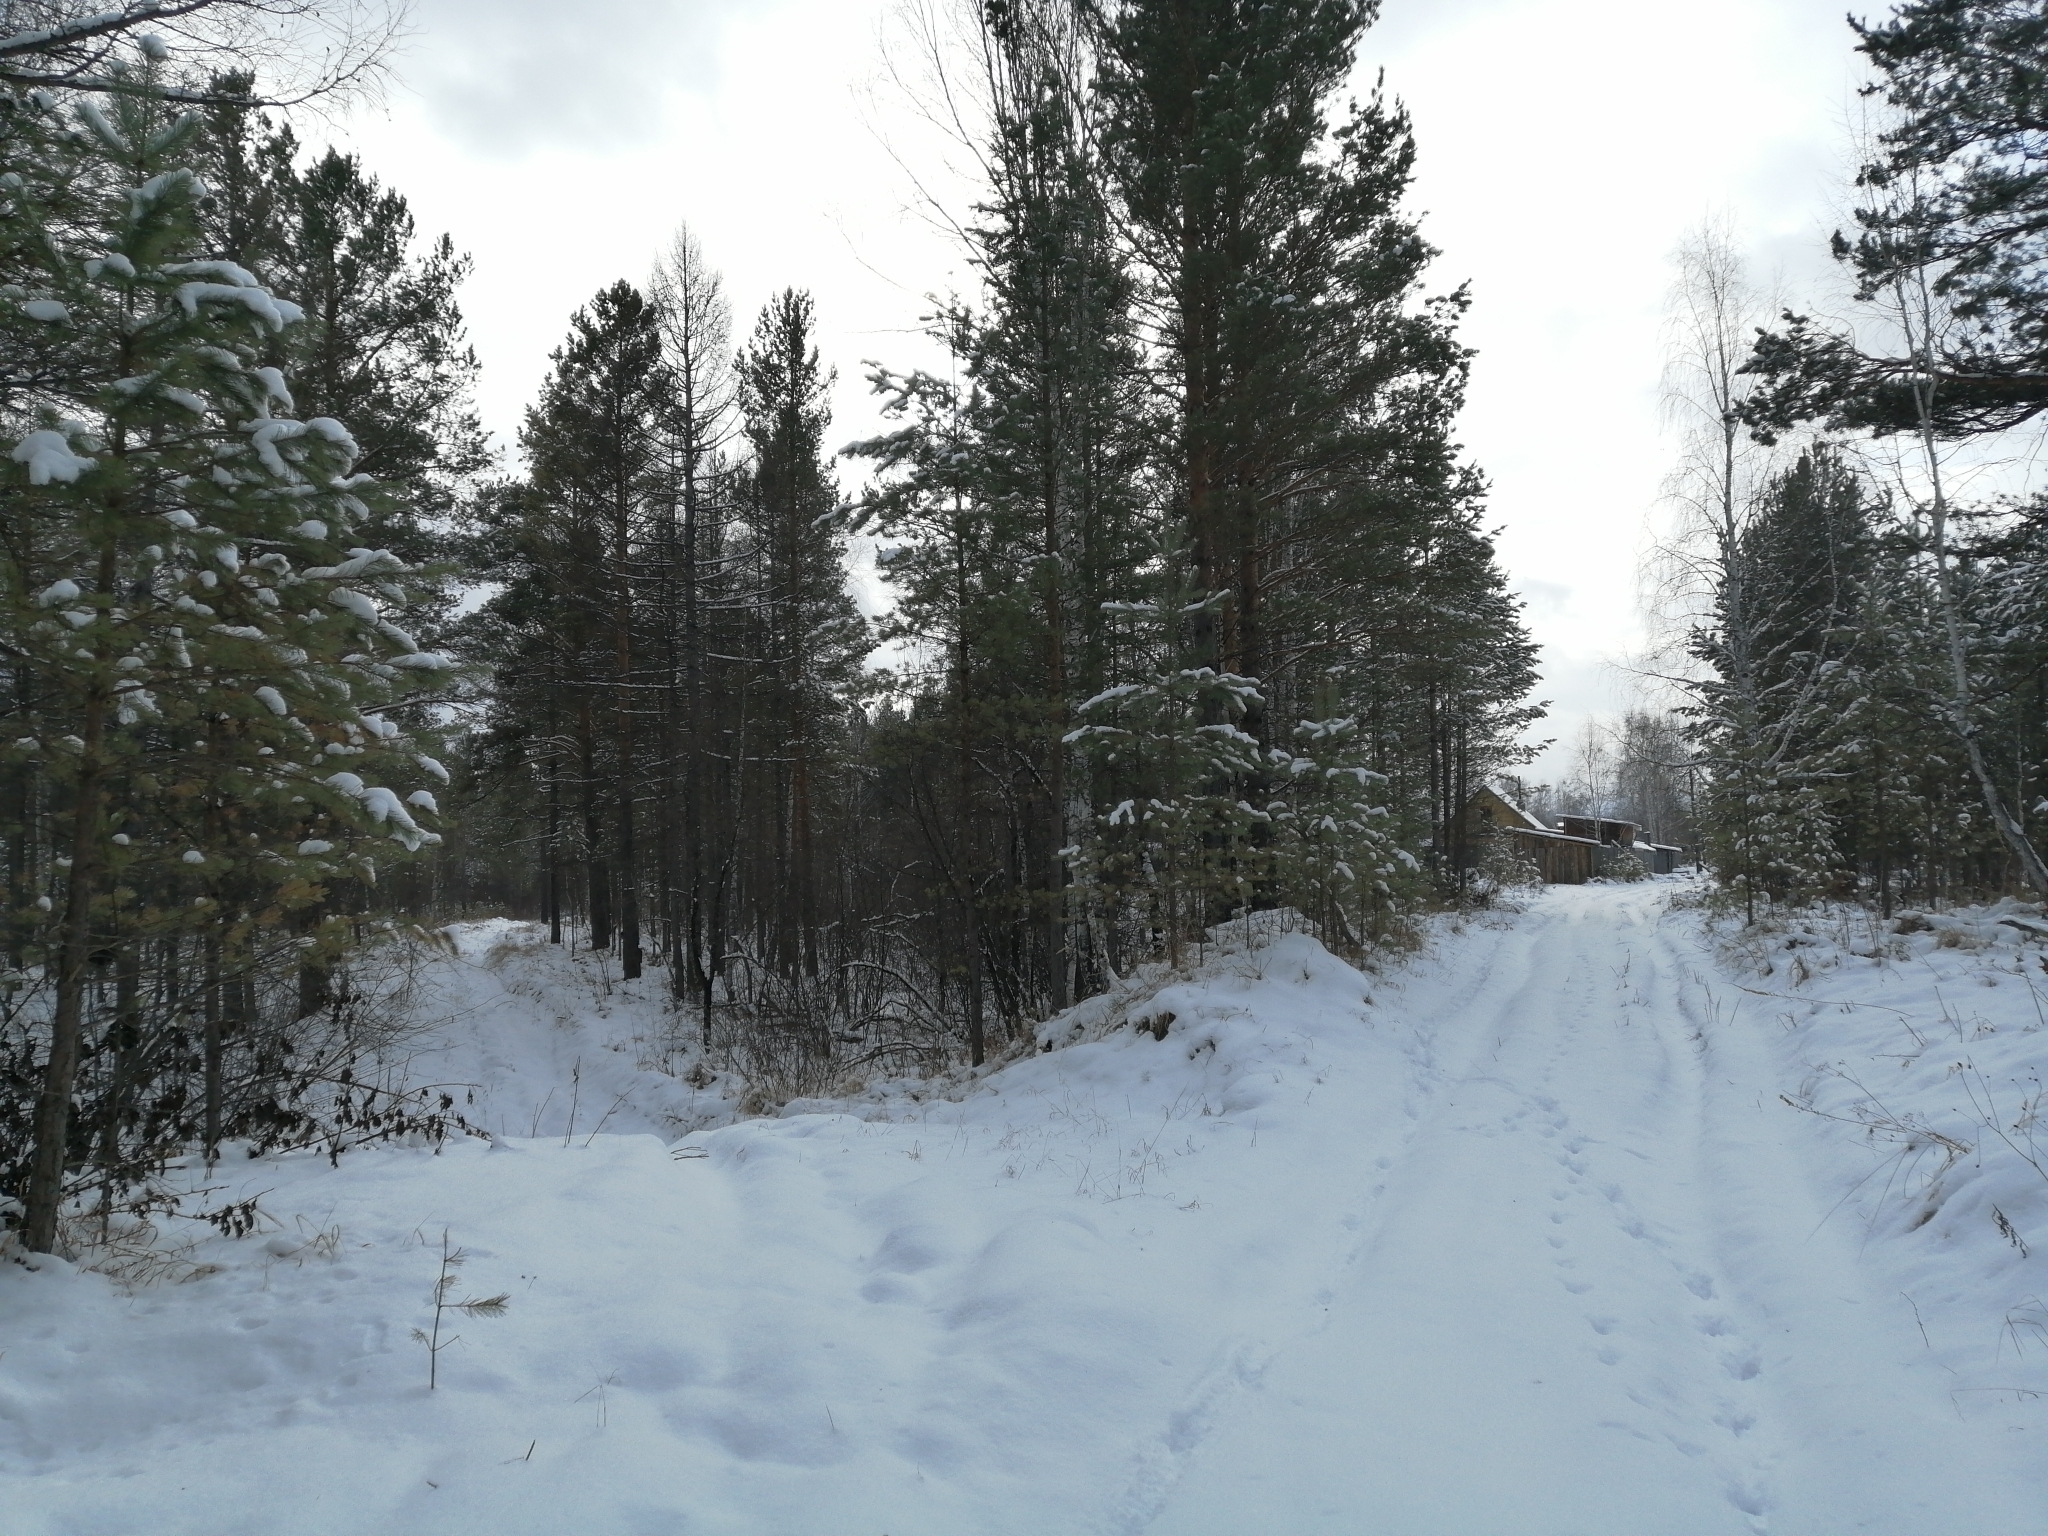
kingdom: Plantae
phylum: Tracheophyta
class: Pinopsida
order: Pinales
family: Pinaceae
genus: Pinus
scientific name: Pinus sylvestris
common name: Scots pine
